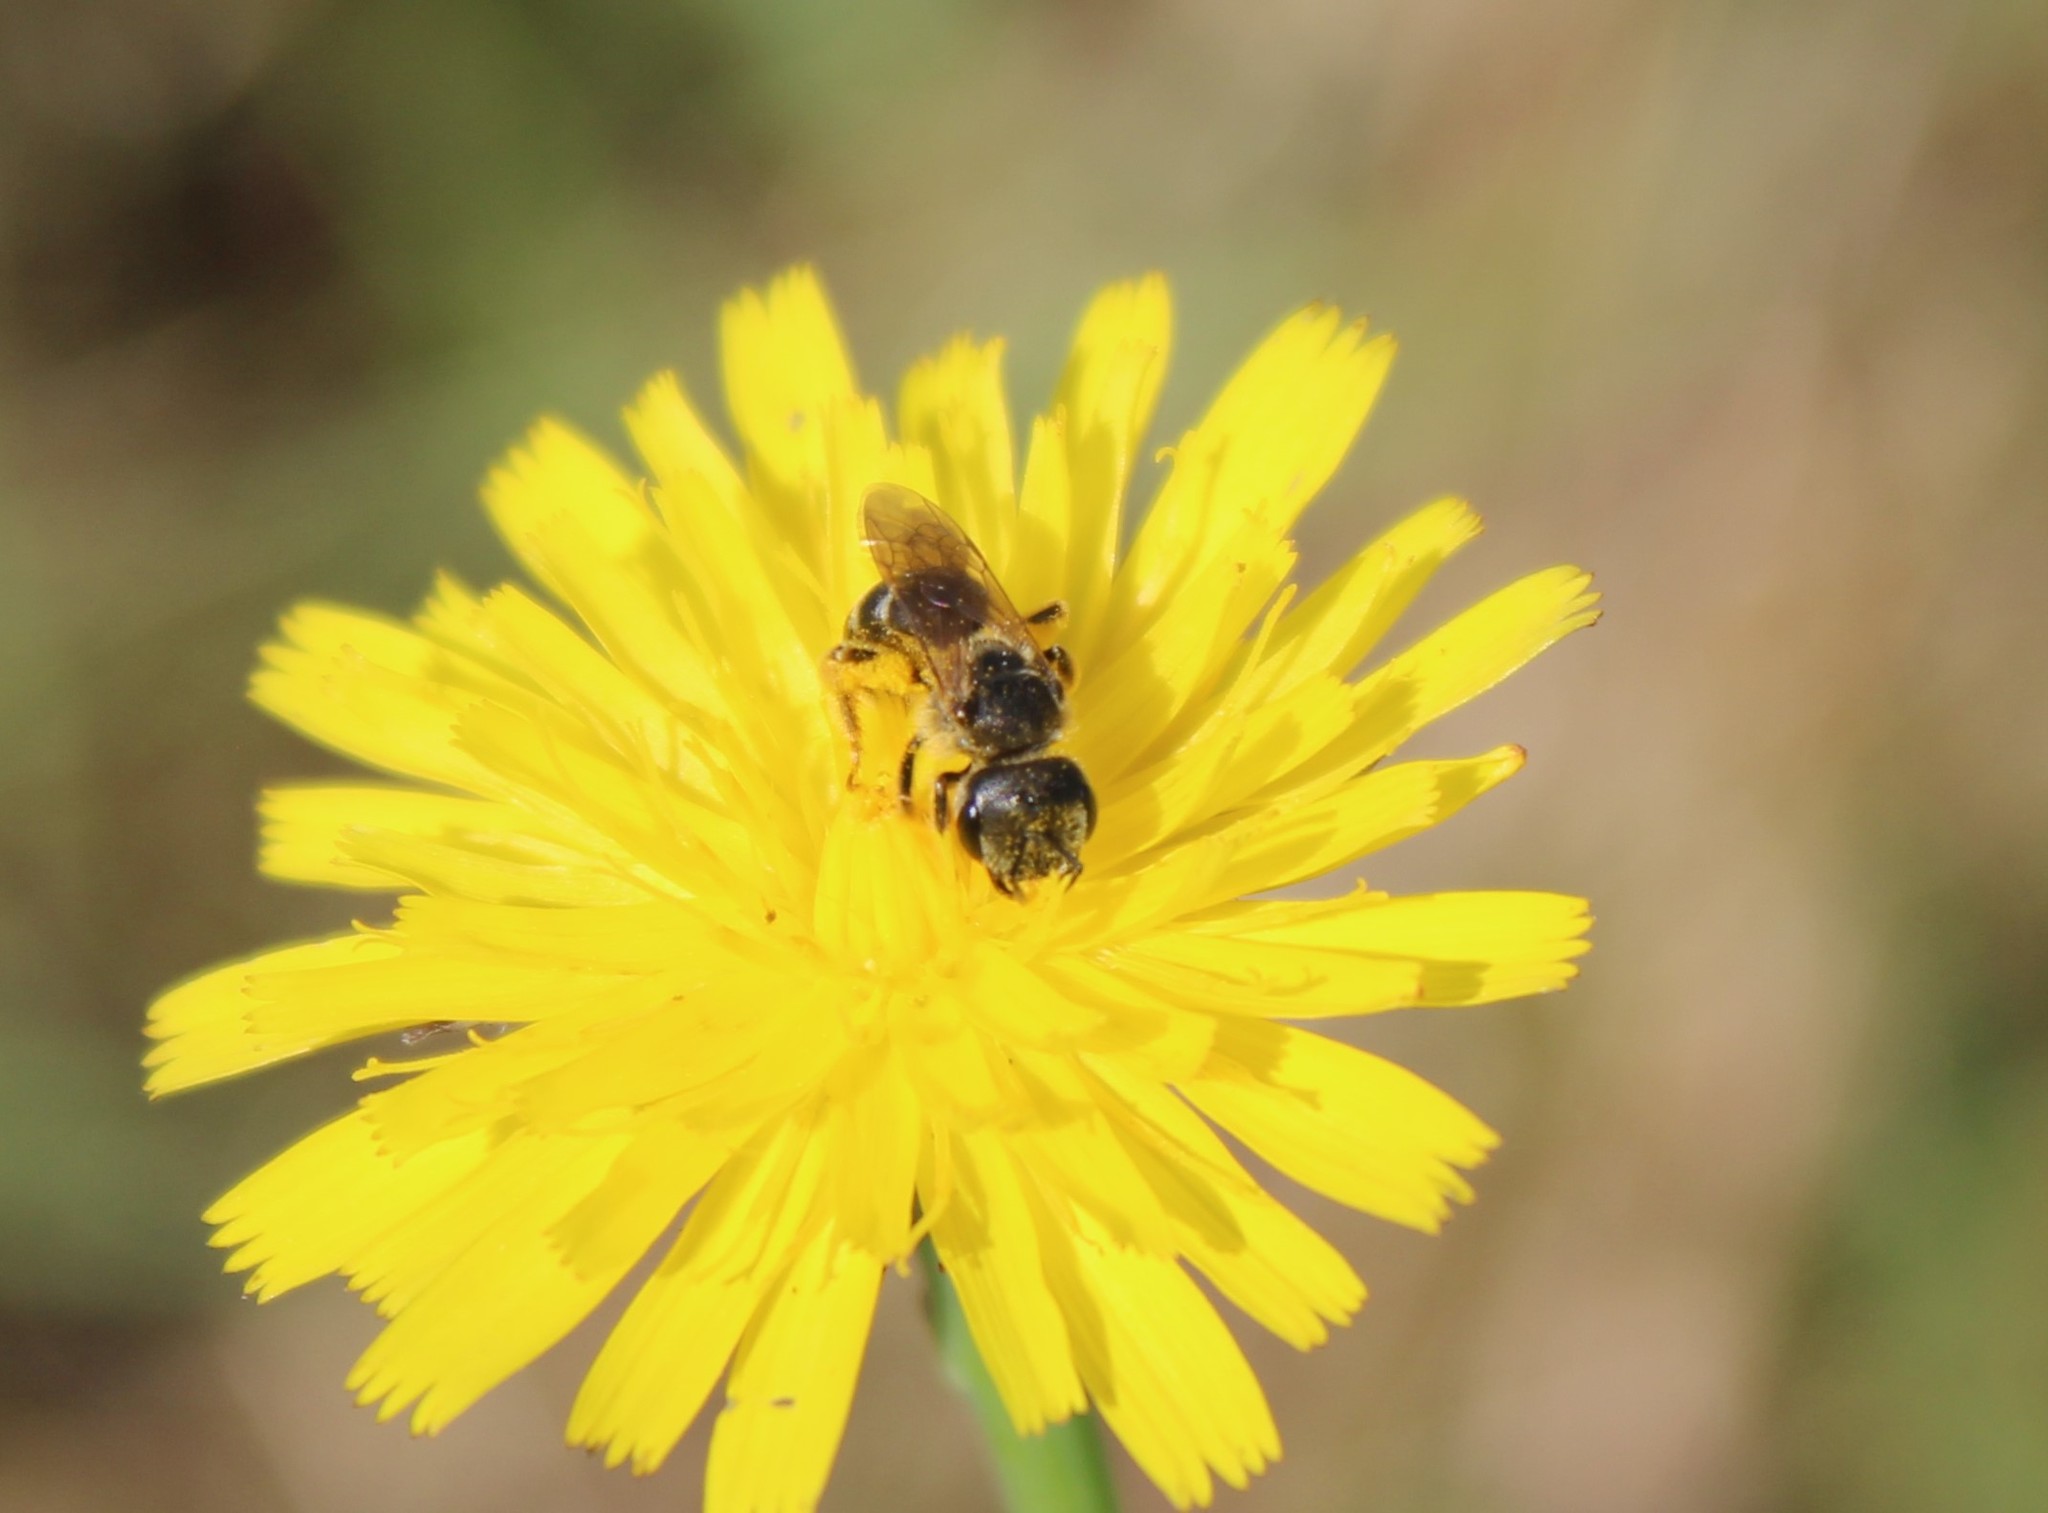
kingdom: Animalia
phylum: Arthropoda
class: Insecta
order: Hymenoptera
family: Halictidae
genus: Halictus
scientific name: Halictus ligatus
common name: Ligated furrow bee
